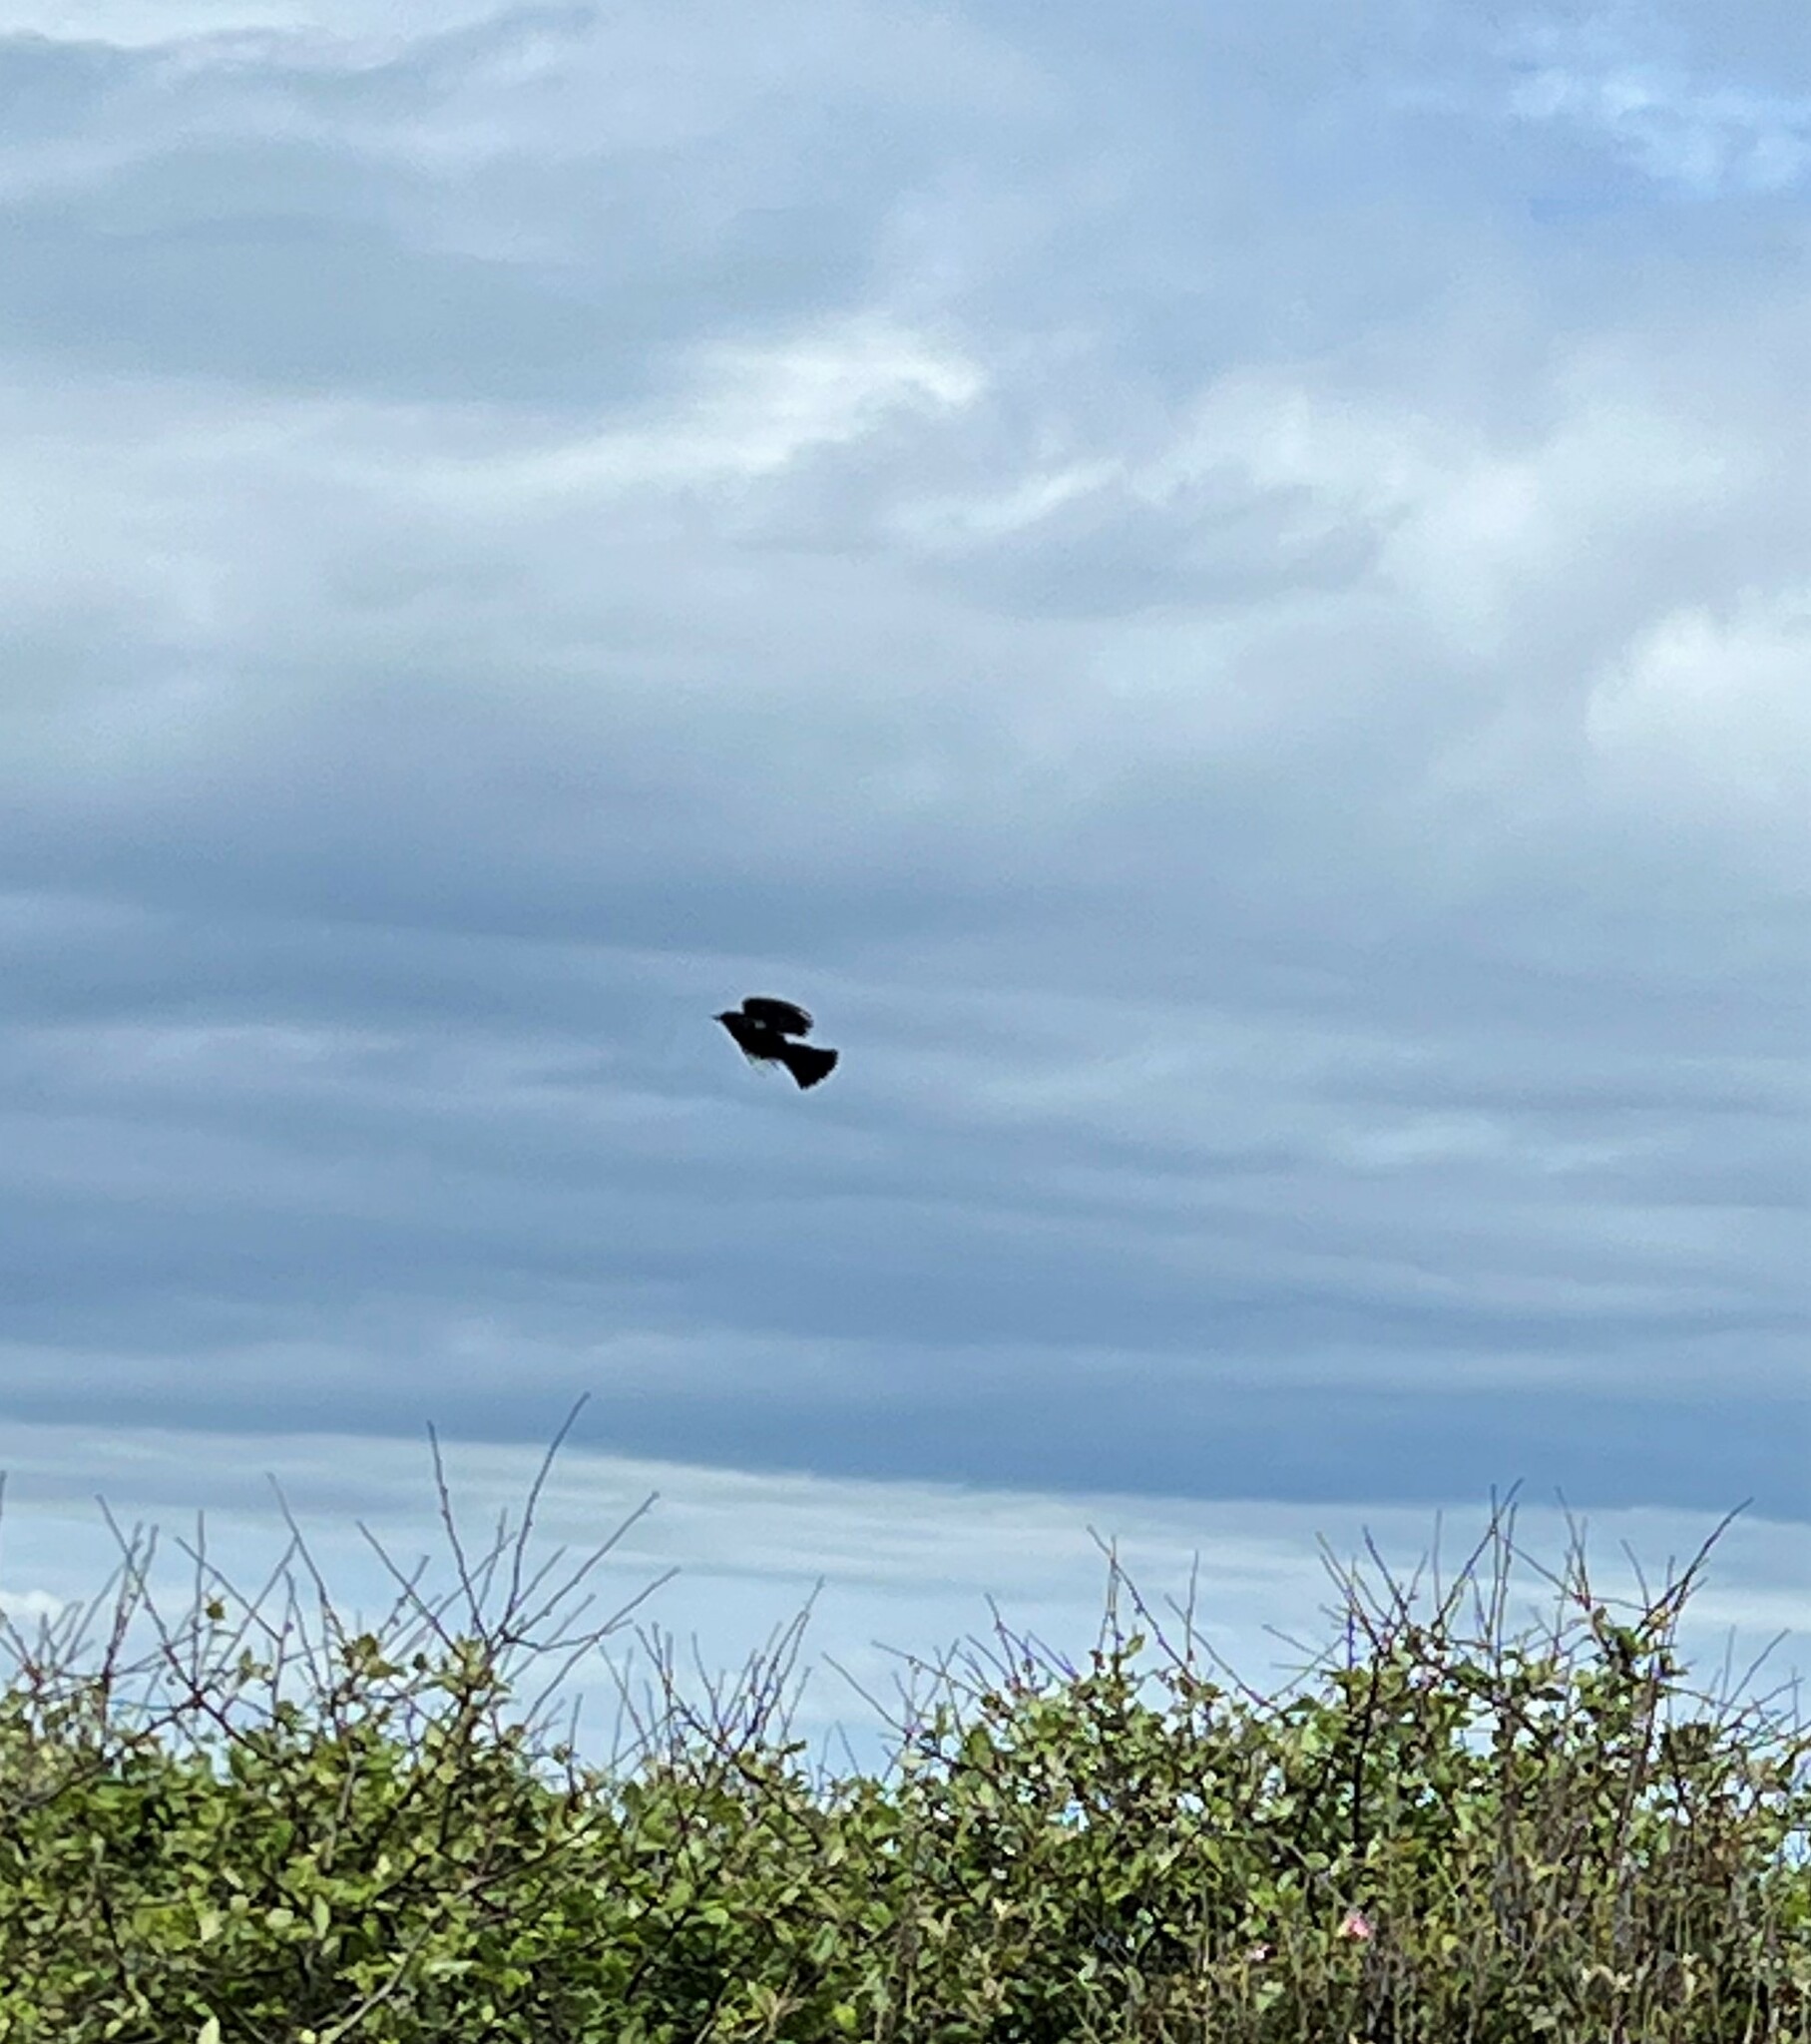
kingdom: Animalia
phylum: Chordata
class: Aves
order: Passeriformes
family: Icteridae
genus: Agelaius
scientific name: Agelaius phoeniceus
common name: Red-winged blackbird
